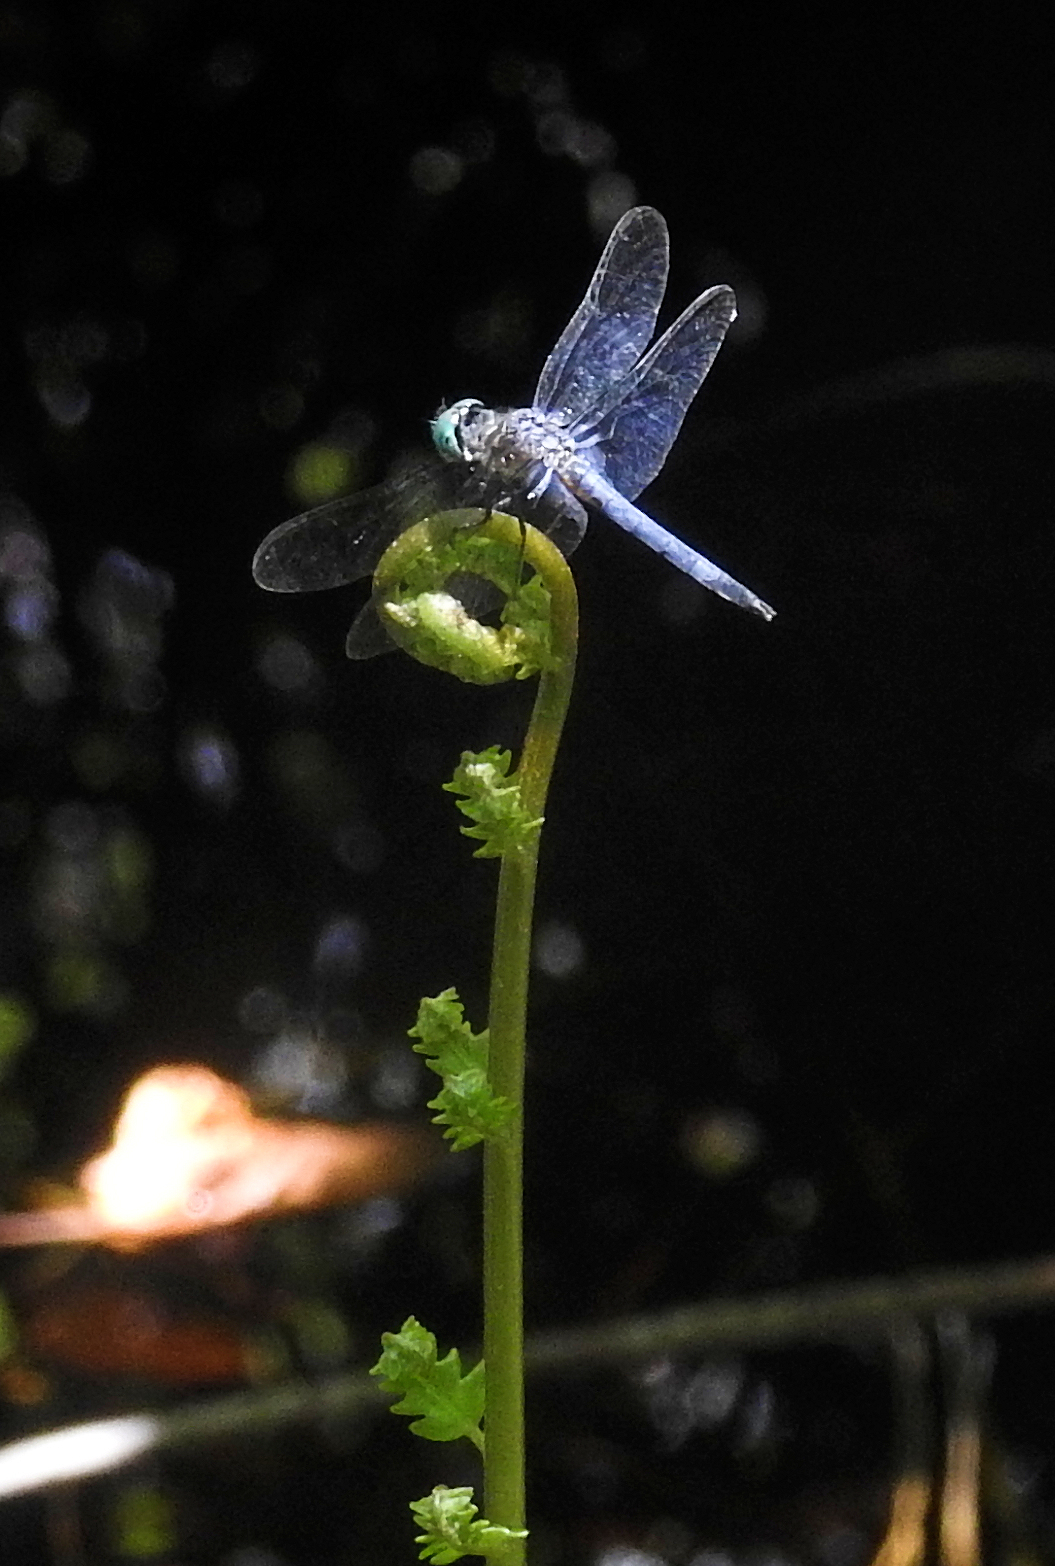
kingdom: Animalia
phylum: Arthropoda
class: Insecta
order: Odonata
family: Libellulidae
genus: Pachydiplax
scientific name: Pachydiplax longipennis
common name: Blue dasher
